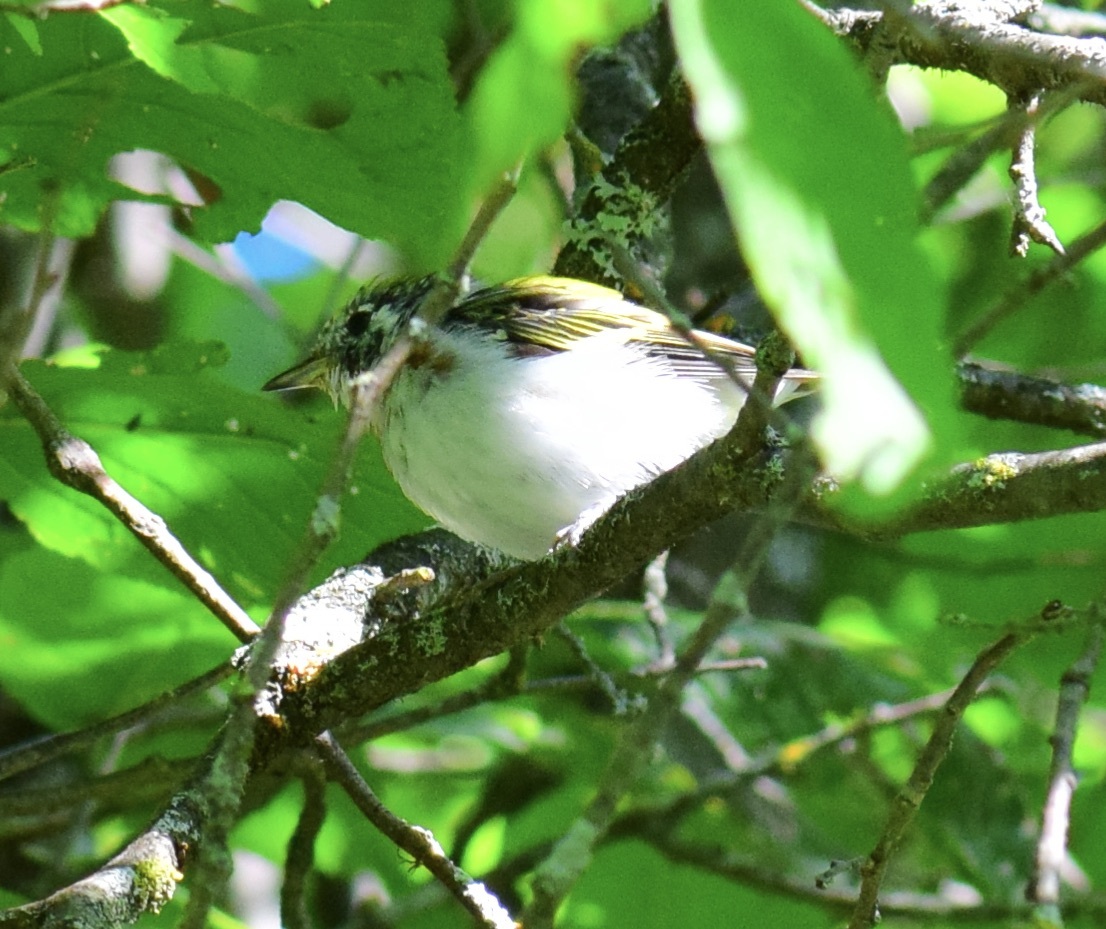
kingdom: Animalia
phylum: Chordata
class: Aves
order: Passeriformes
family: Parulidae
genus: Setophaga
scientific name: Setophaga pensylvanica
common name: Chestnut-sided warbler
